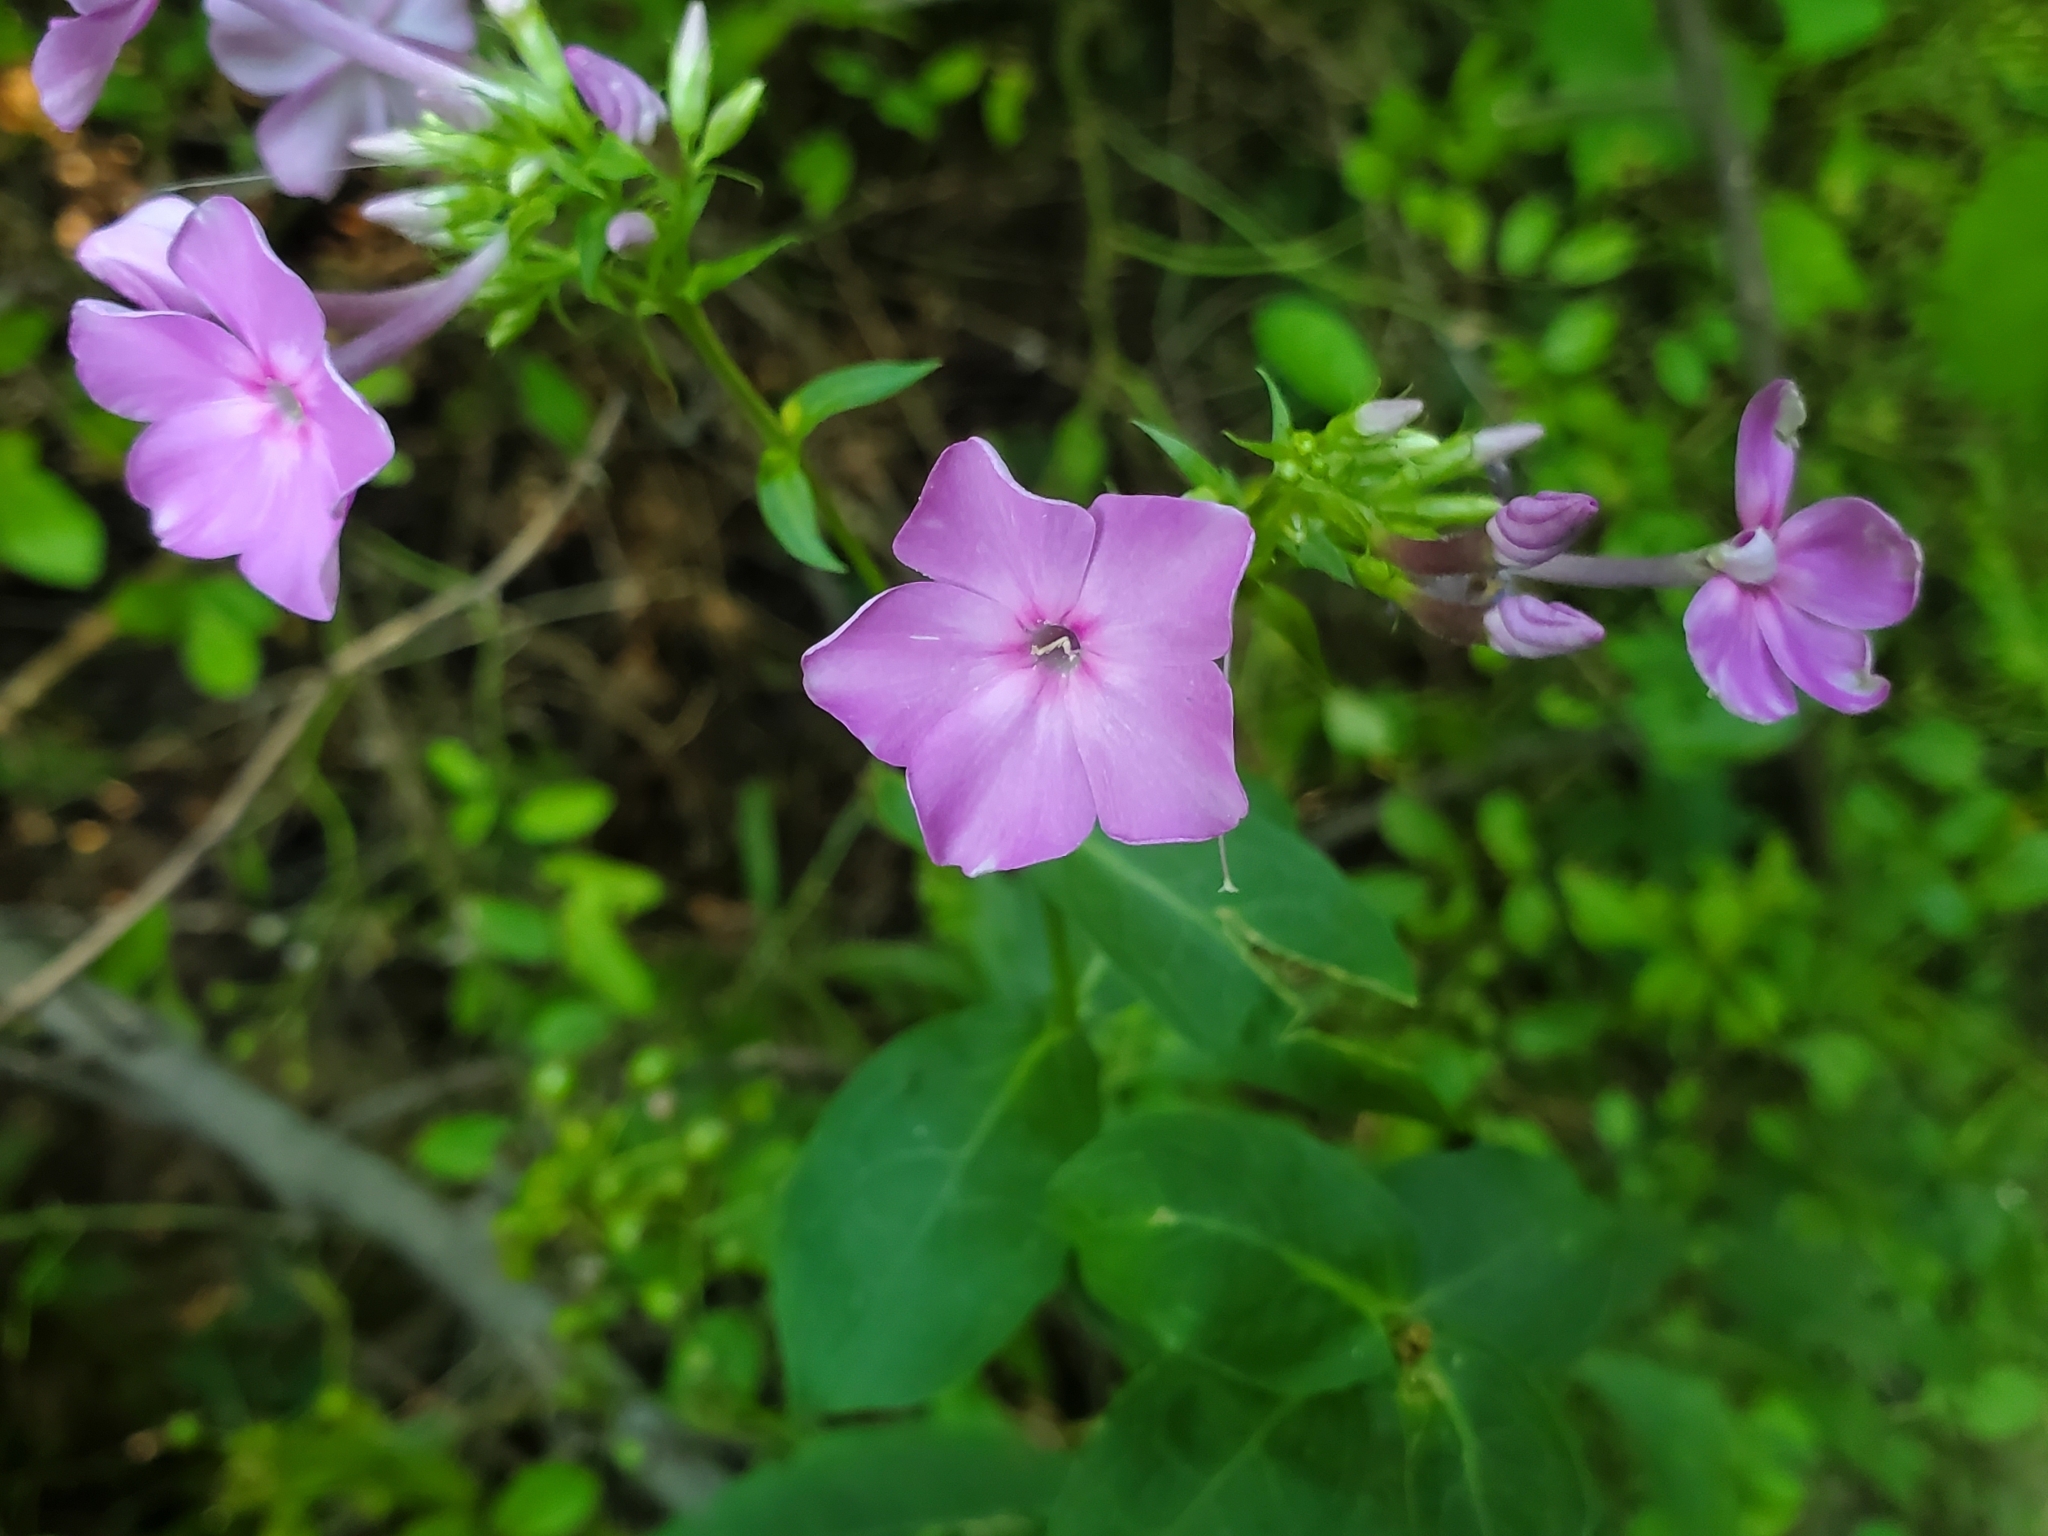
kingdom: Plantae
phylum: Tracheophyta
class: Magnoliopsida
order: Ericales
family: Polemoniaceae
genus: Phlox
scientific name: Phlox paniculata
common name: Fall phlox
